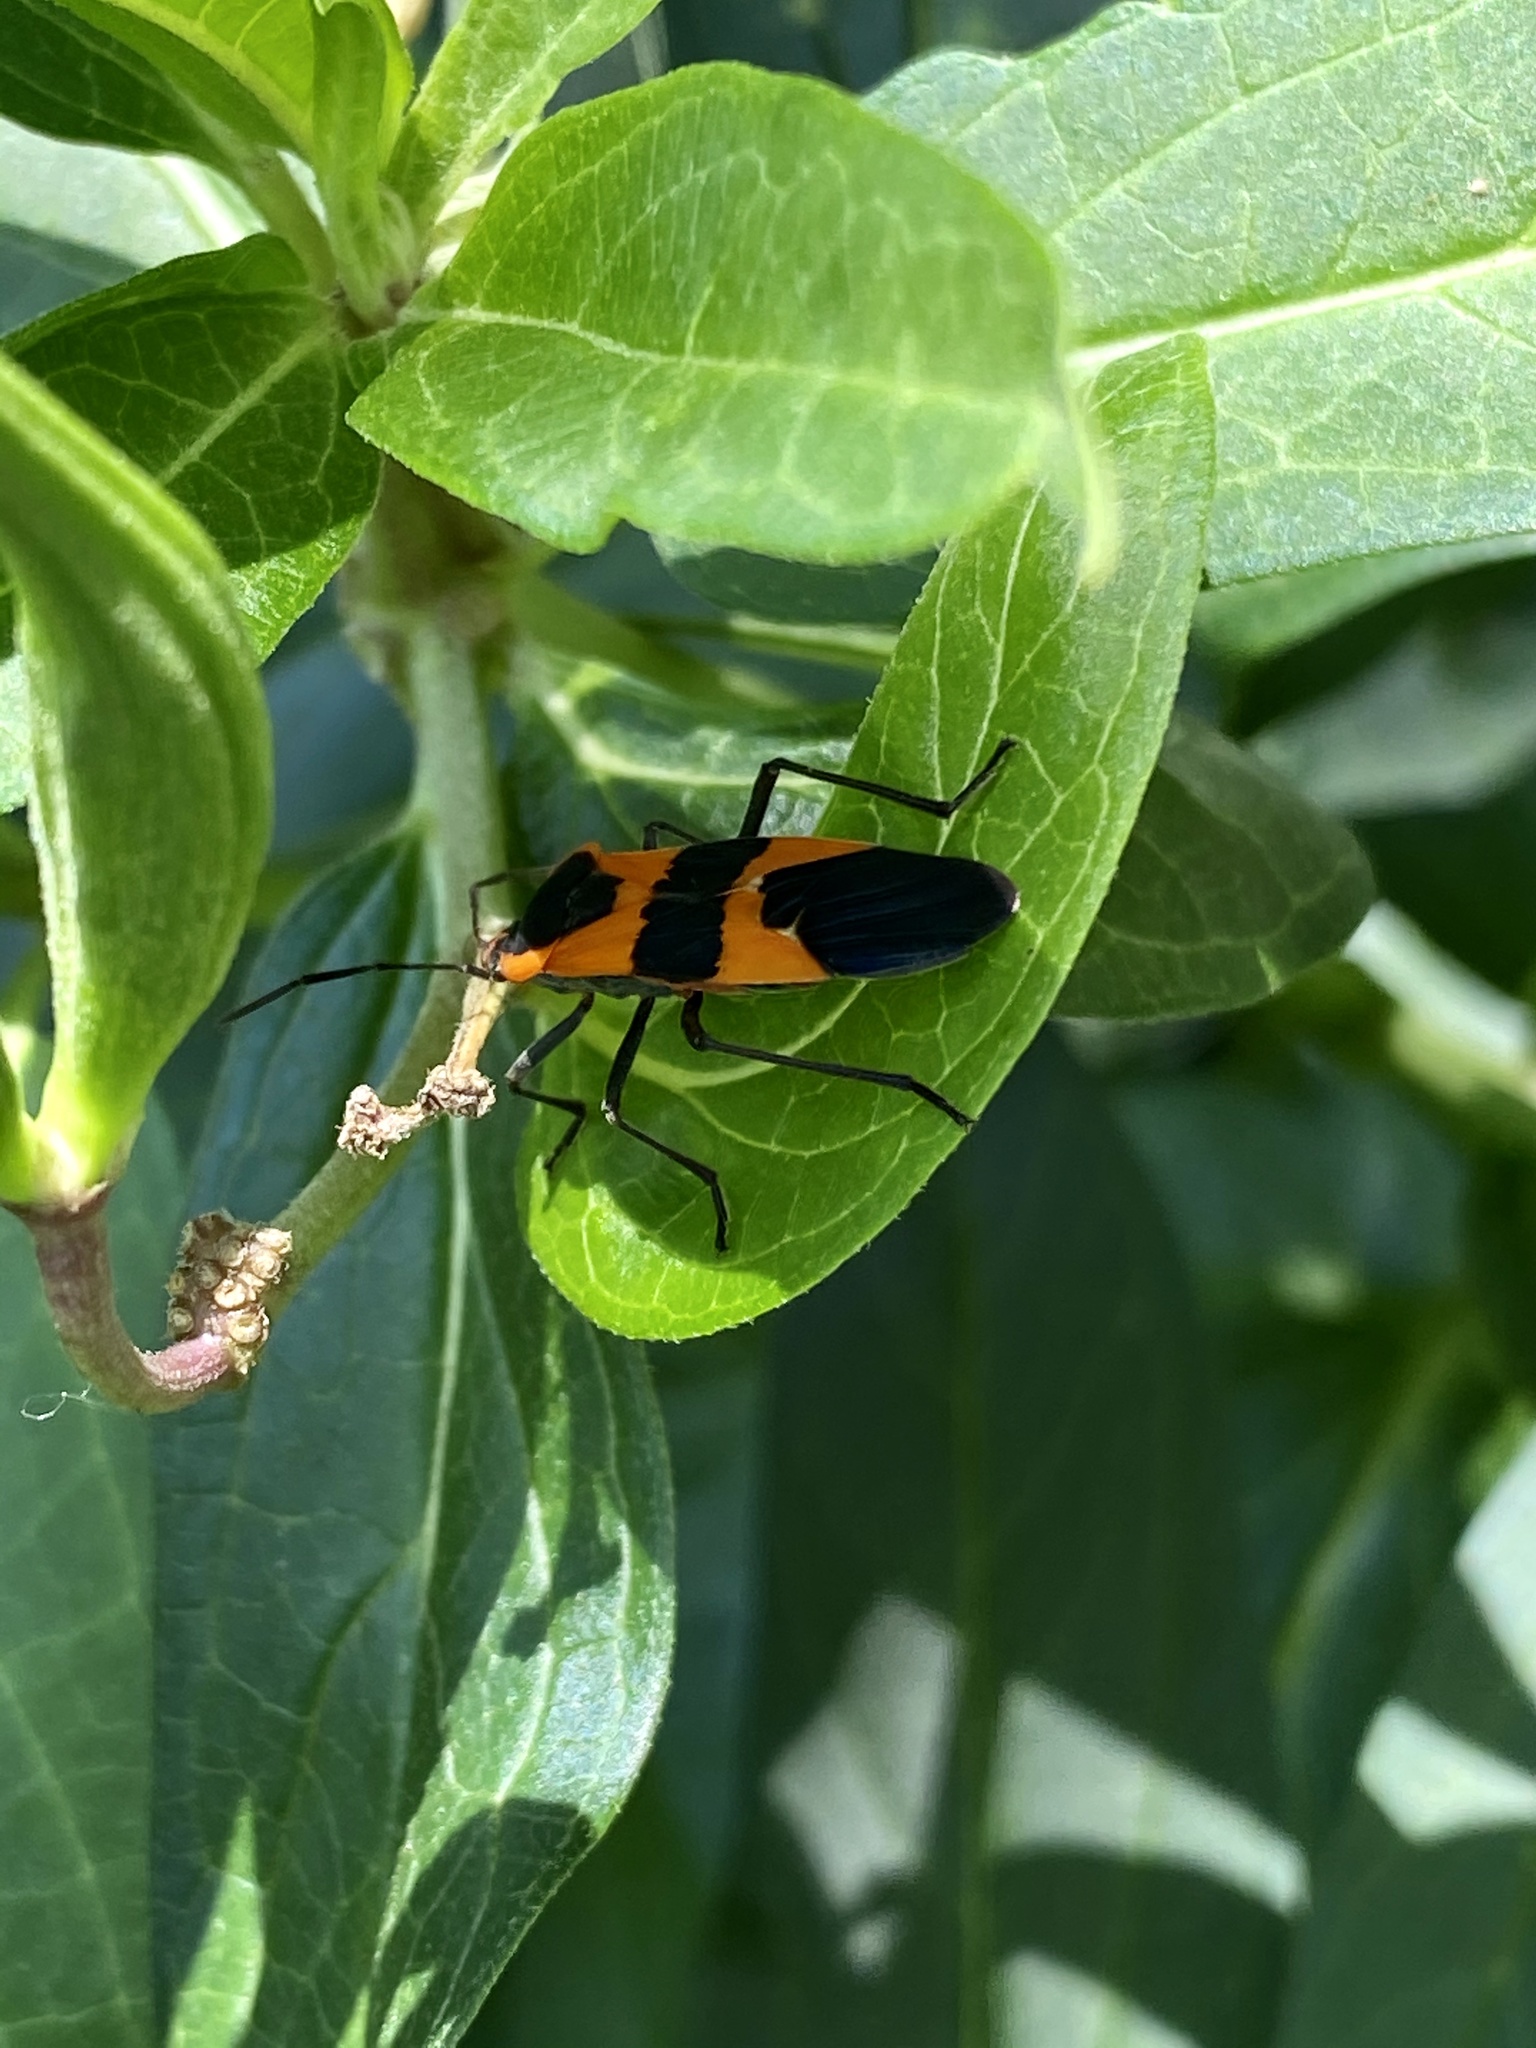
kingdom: Animalia
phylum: Arthropoda
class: Insecta
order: Hemiptera
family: Lygaeidae
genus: Oncopeltus
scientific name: Oncopeltus fasciatus
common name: Large milkweed bug
